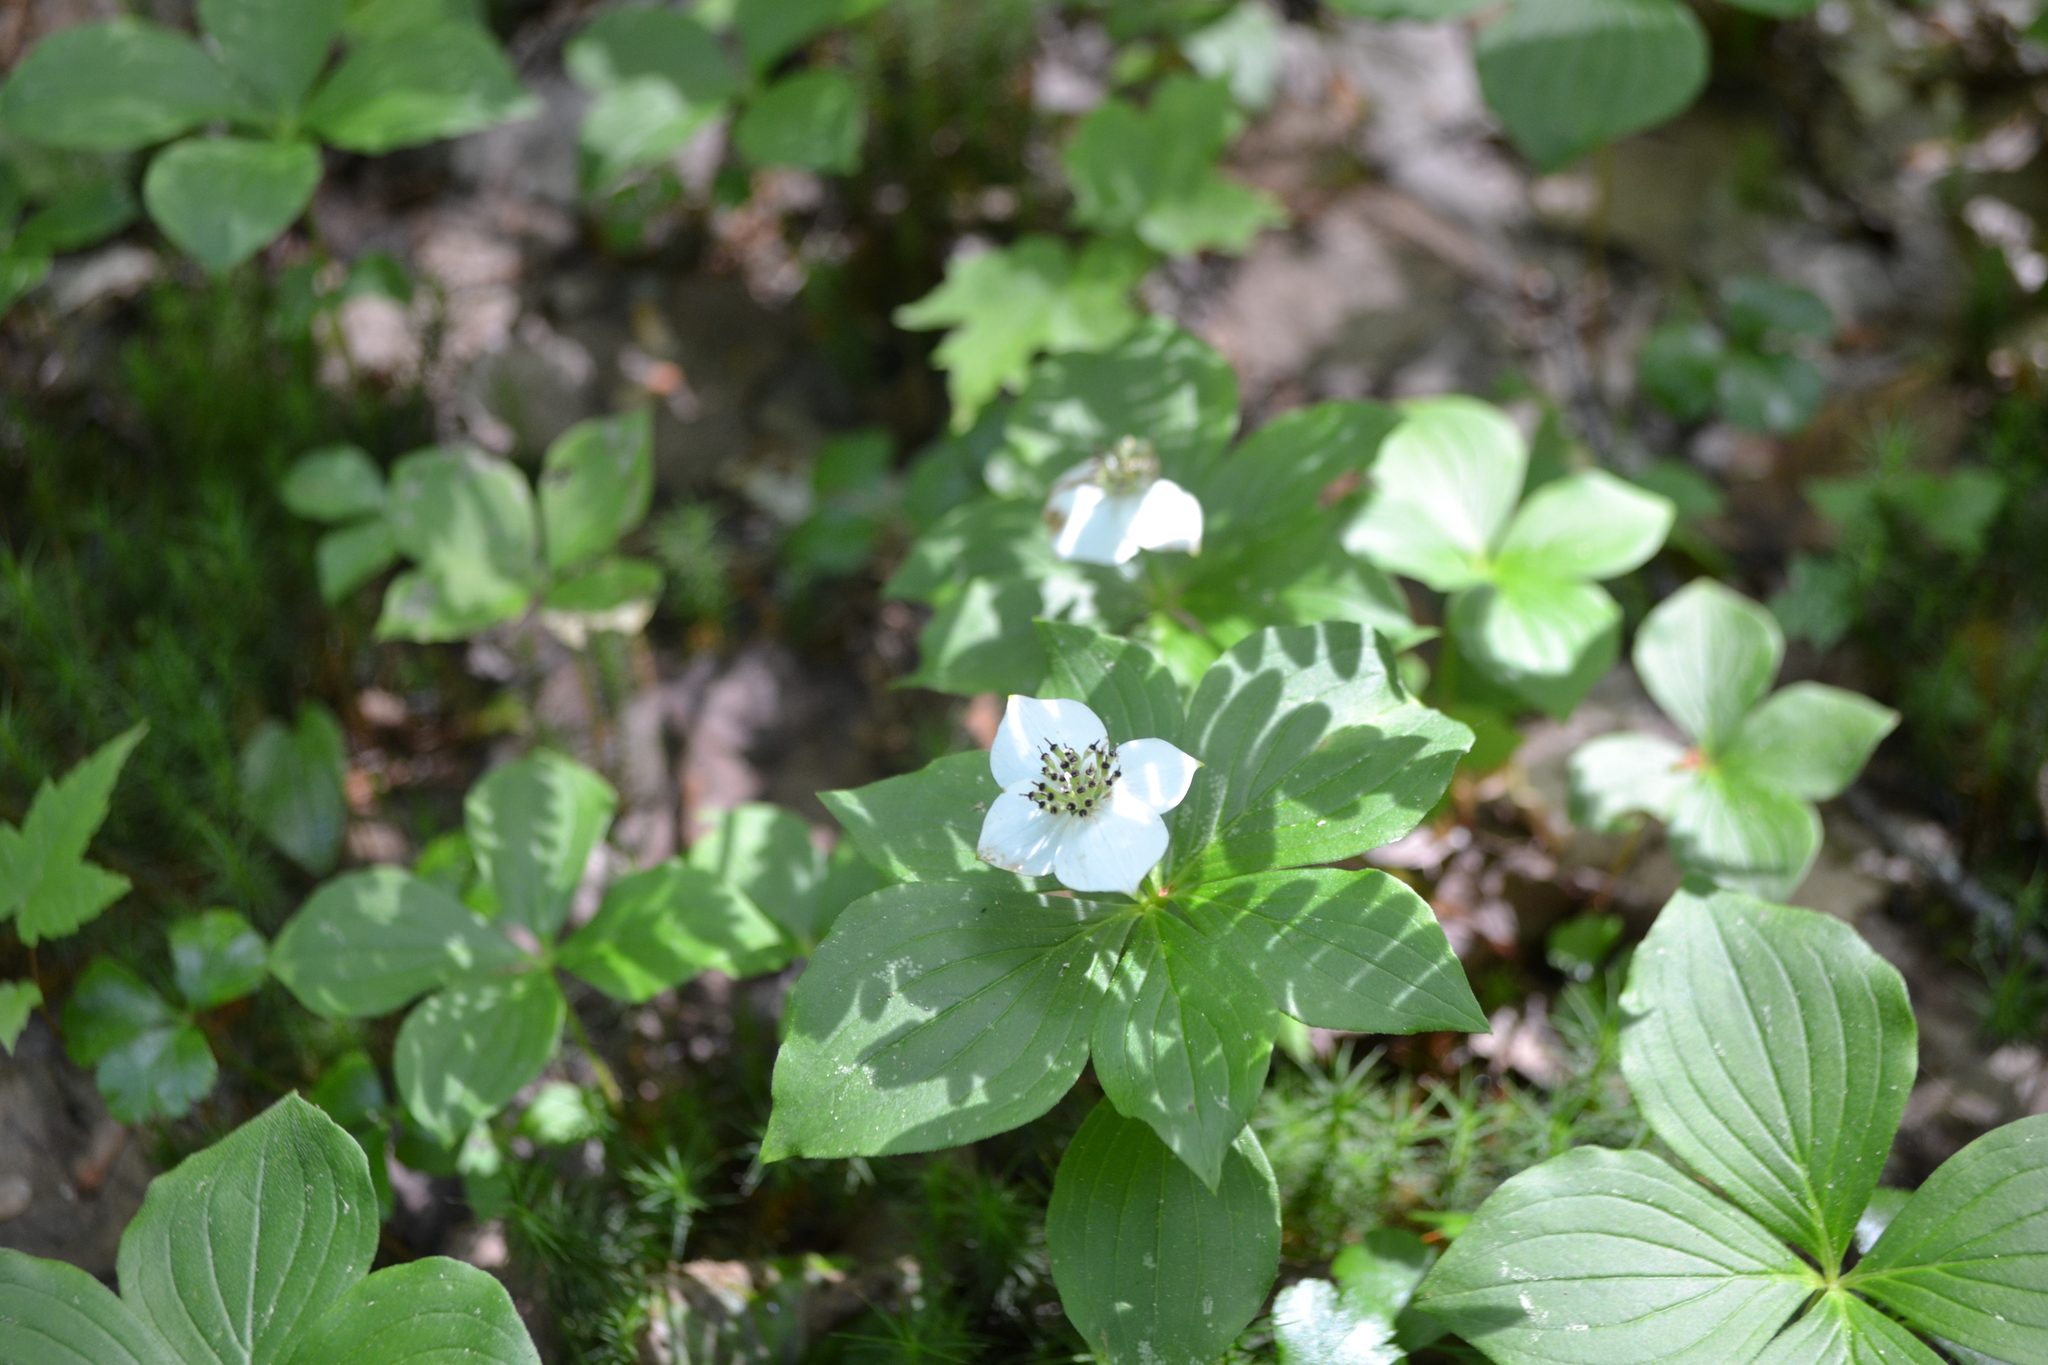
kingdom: Plantae
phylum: Tracheophyta
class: Magnoliopsida
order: Cornales
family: Cornaceae
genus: Cornus
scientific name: Cornus canadensis
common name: Creeping dogwood
